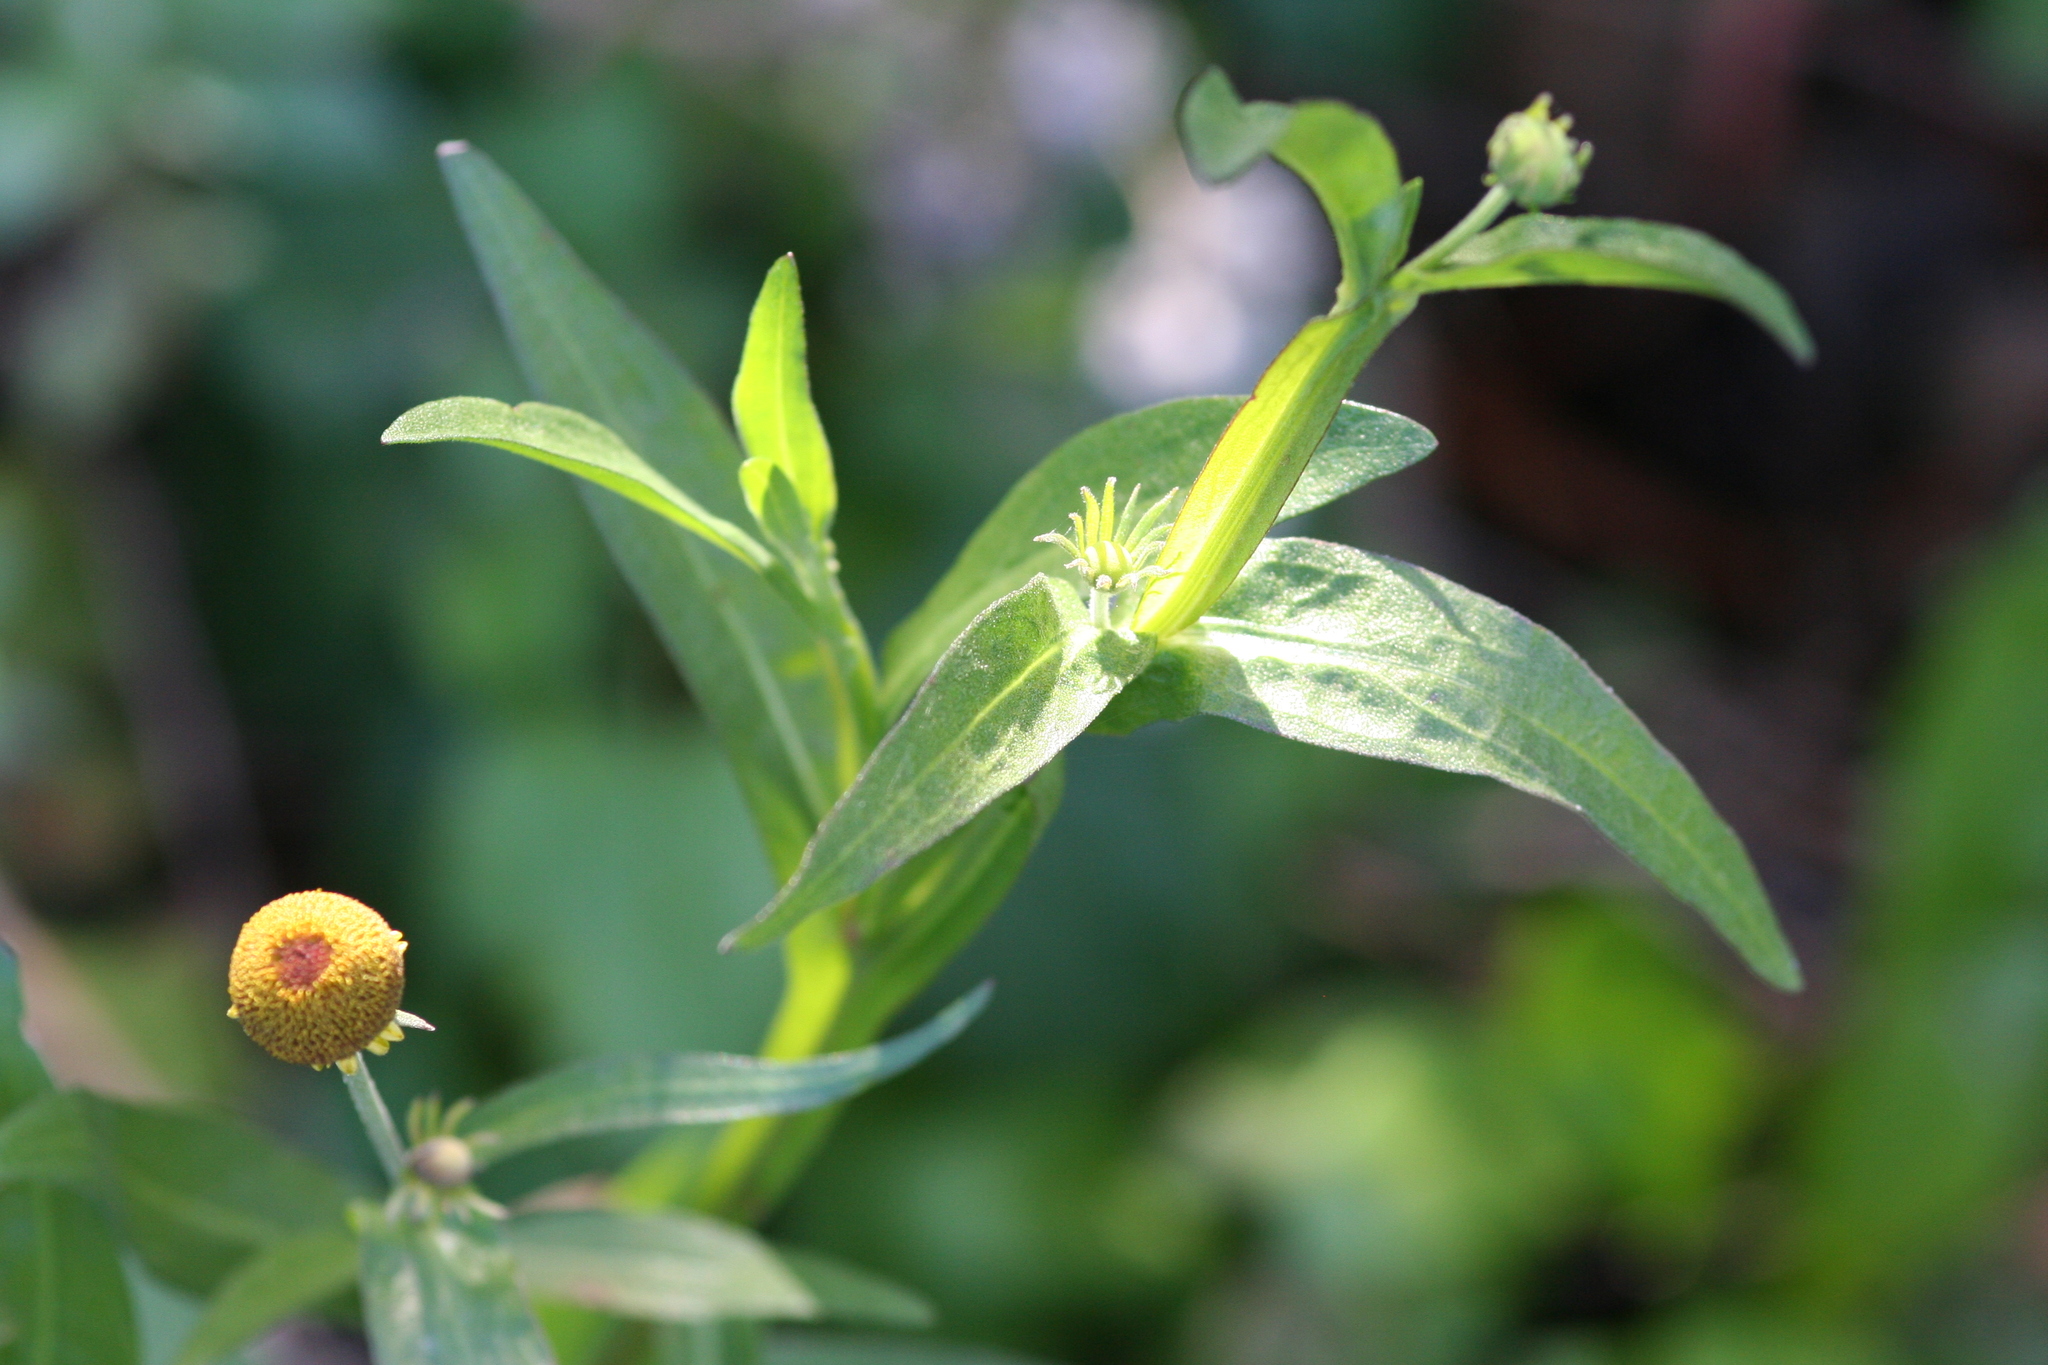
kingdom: Plantae
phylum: Tracheophyta
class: Magnoliopsida
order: Asterales
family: Asteraceae
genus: Helenium
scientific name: Helenium puberulum
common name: Sneezewort
